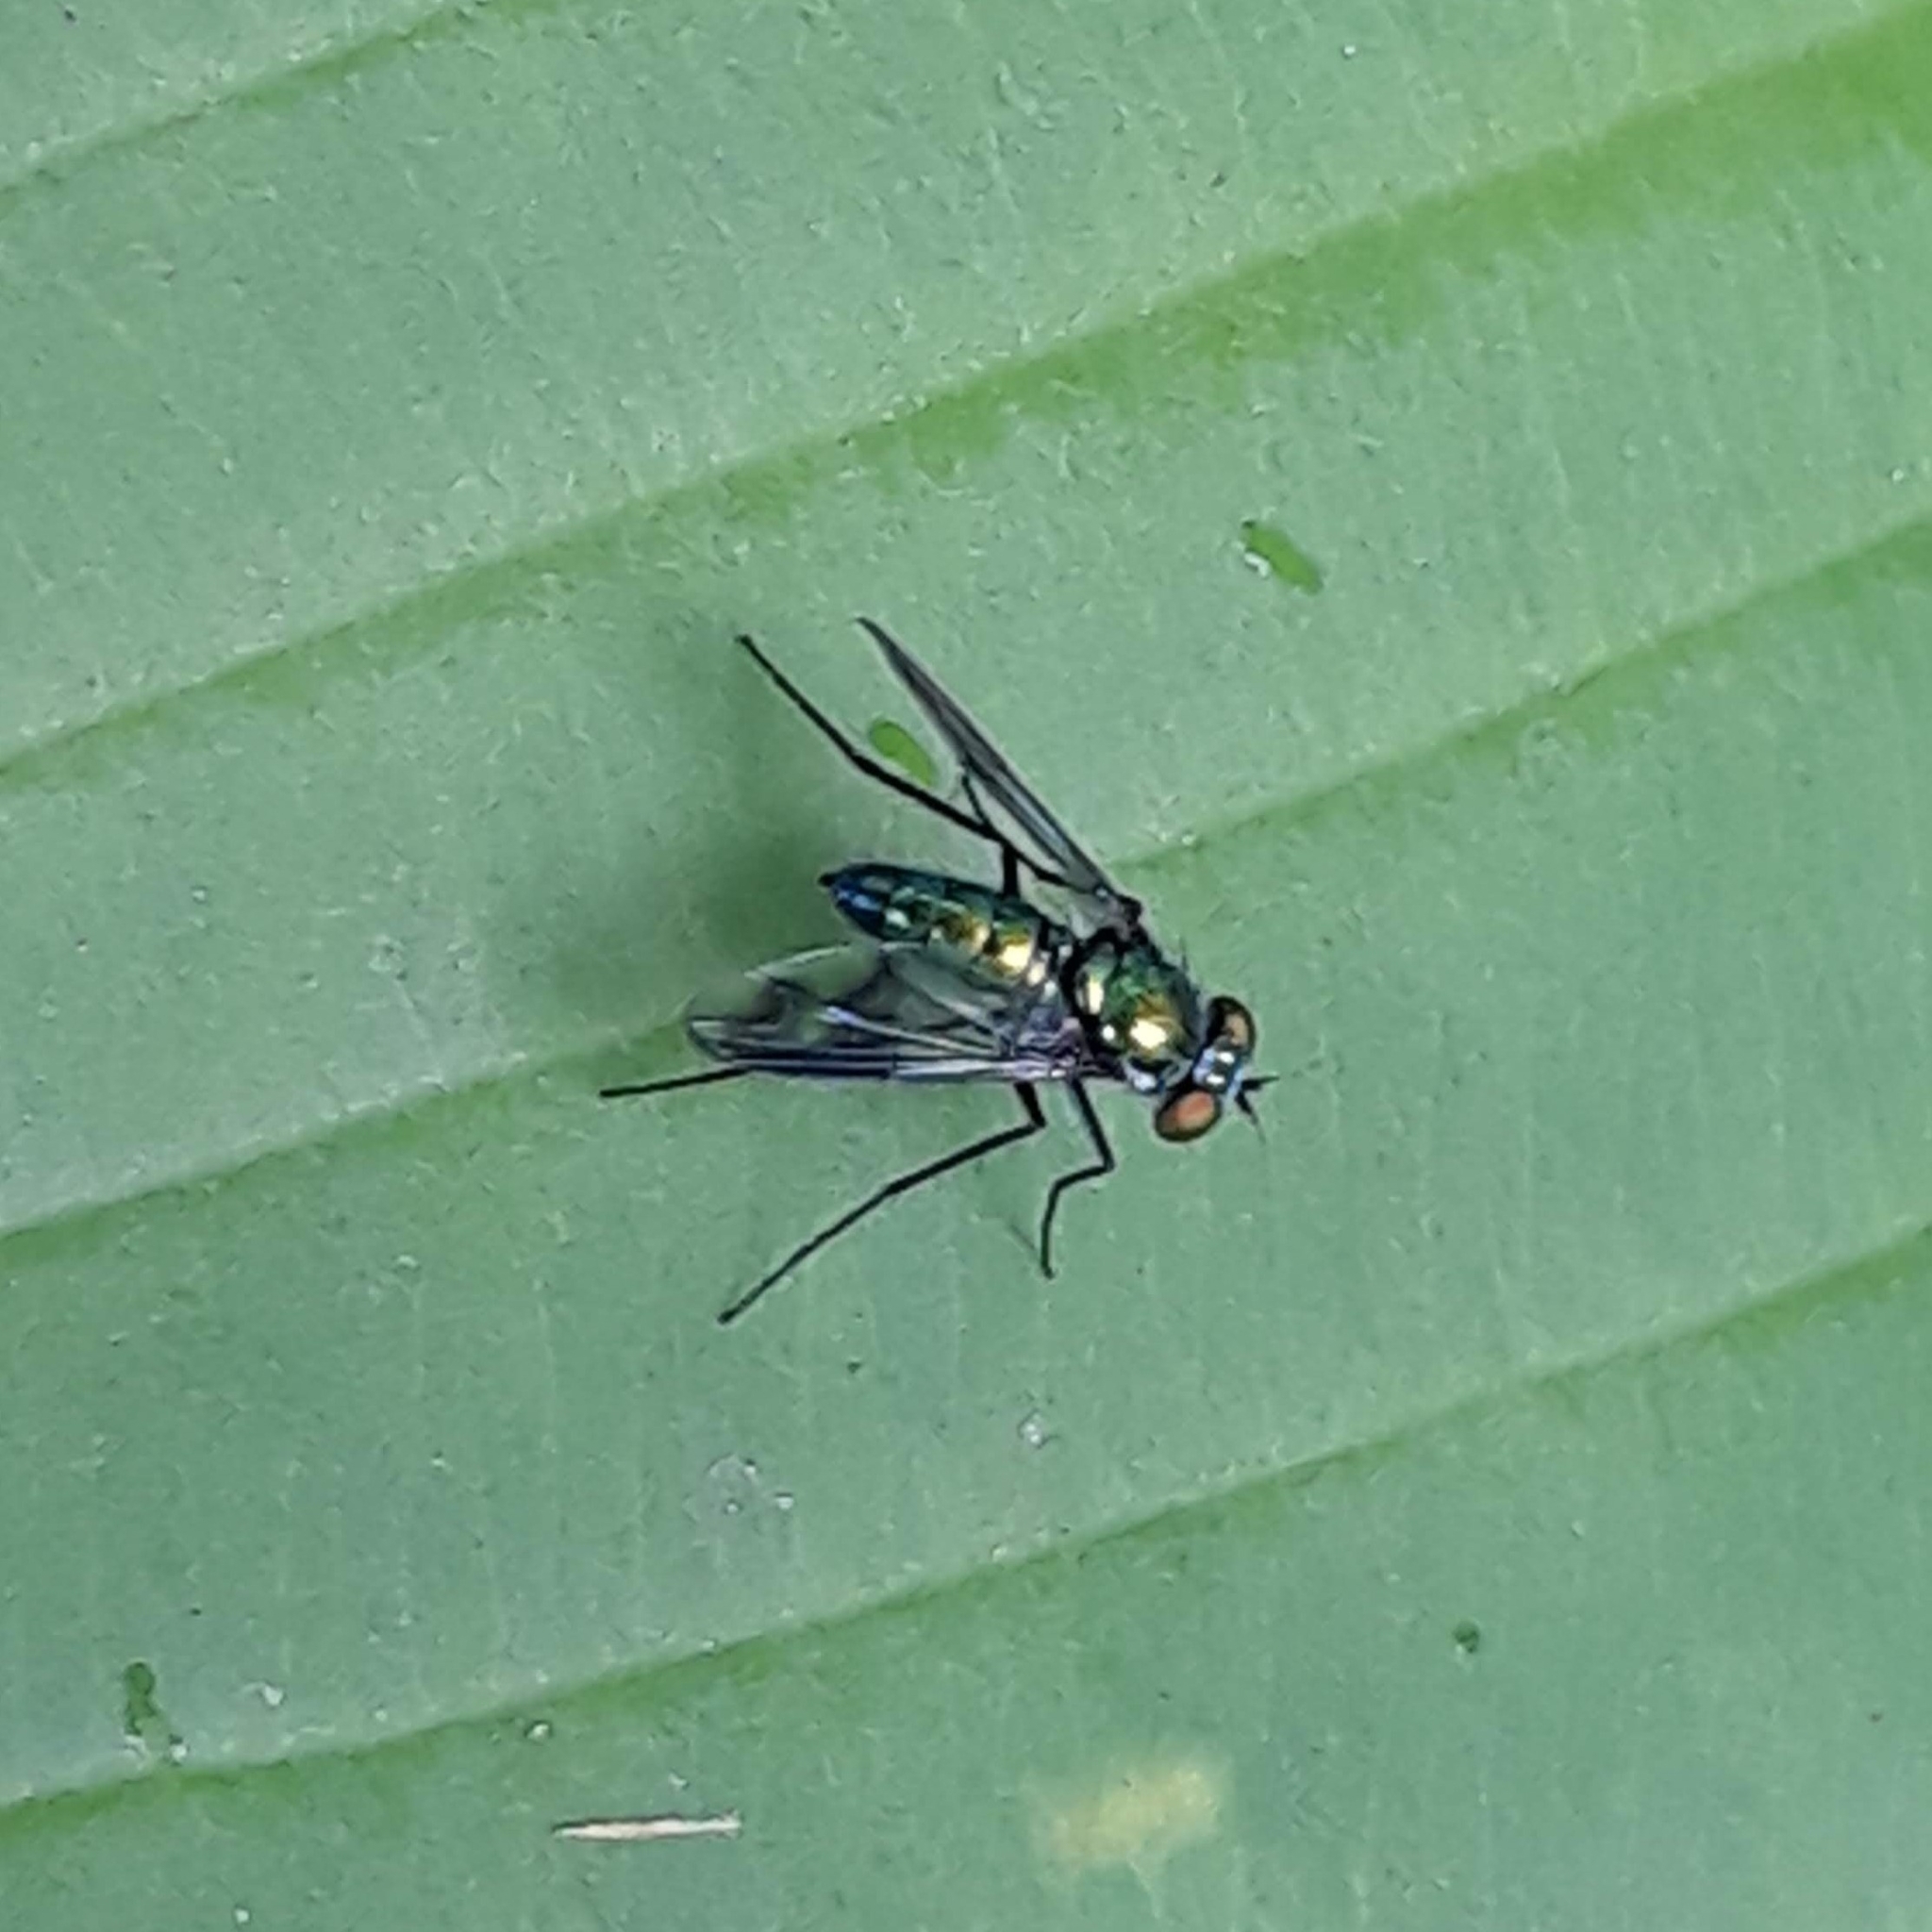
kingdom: Animalia
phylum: Arthropoda
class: Insecta
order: Diptera
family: Dolichopodidae
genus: Condylostylus
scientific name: Condylostylus patibulatus
